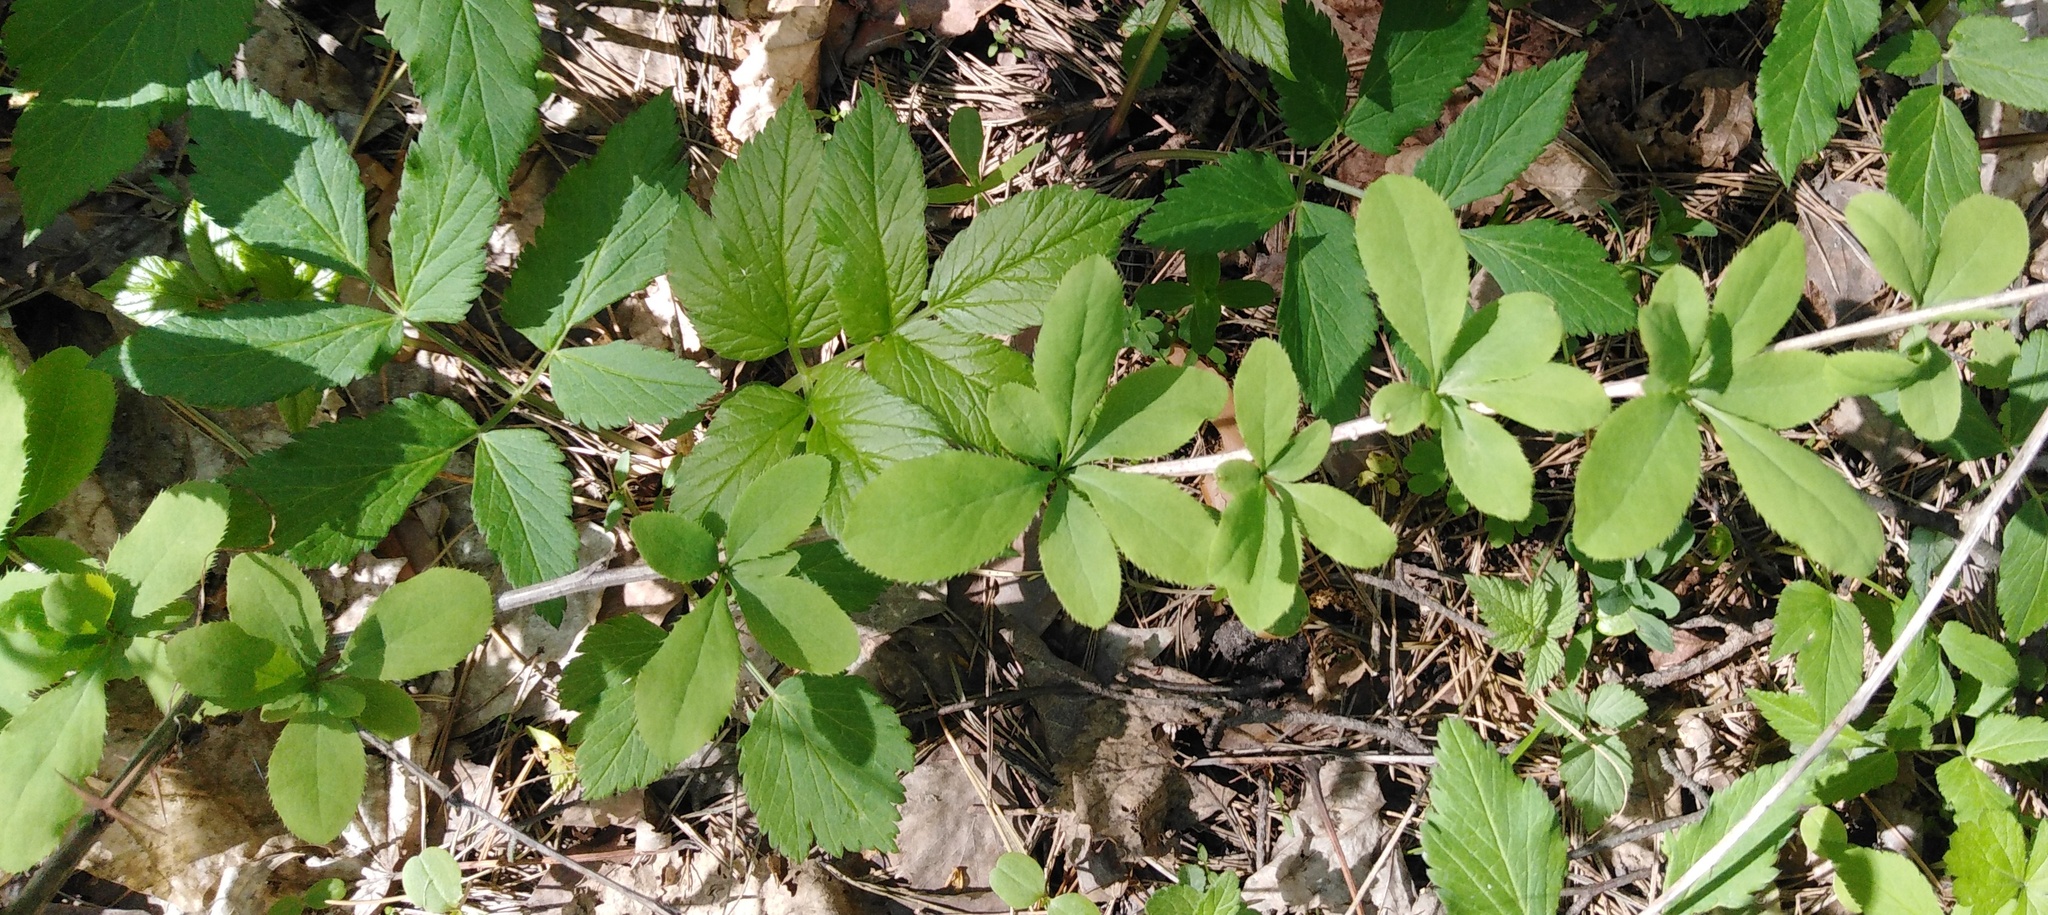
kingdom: Plantae
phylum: Tracheophyta
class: Magnoliopsida
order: Ranunculales
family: Berberidaceae
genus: Berberis
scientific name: Berberis vulgaris
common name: Barberry
